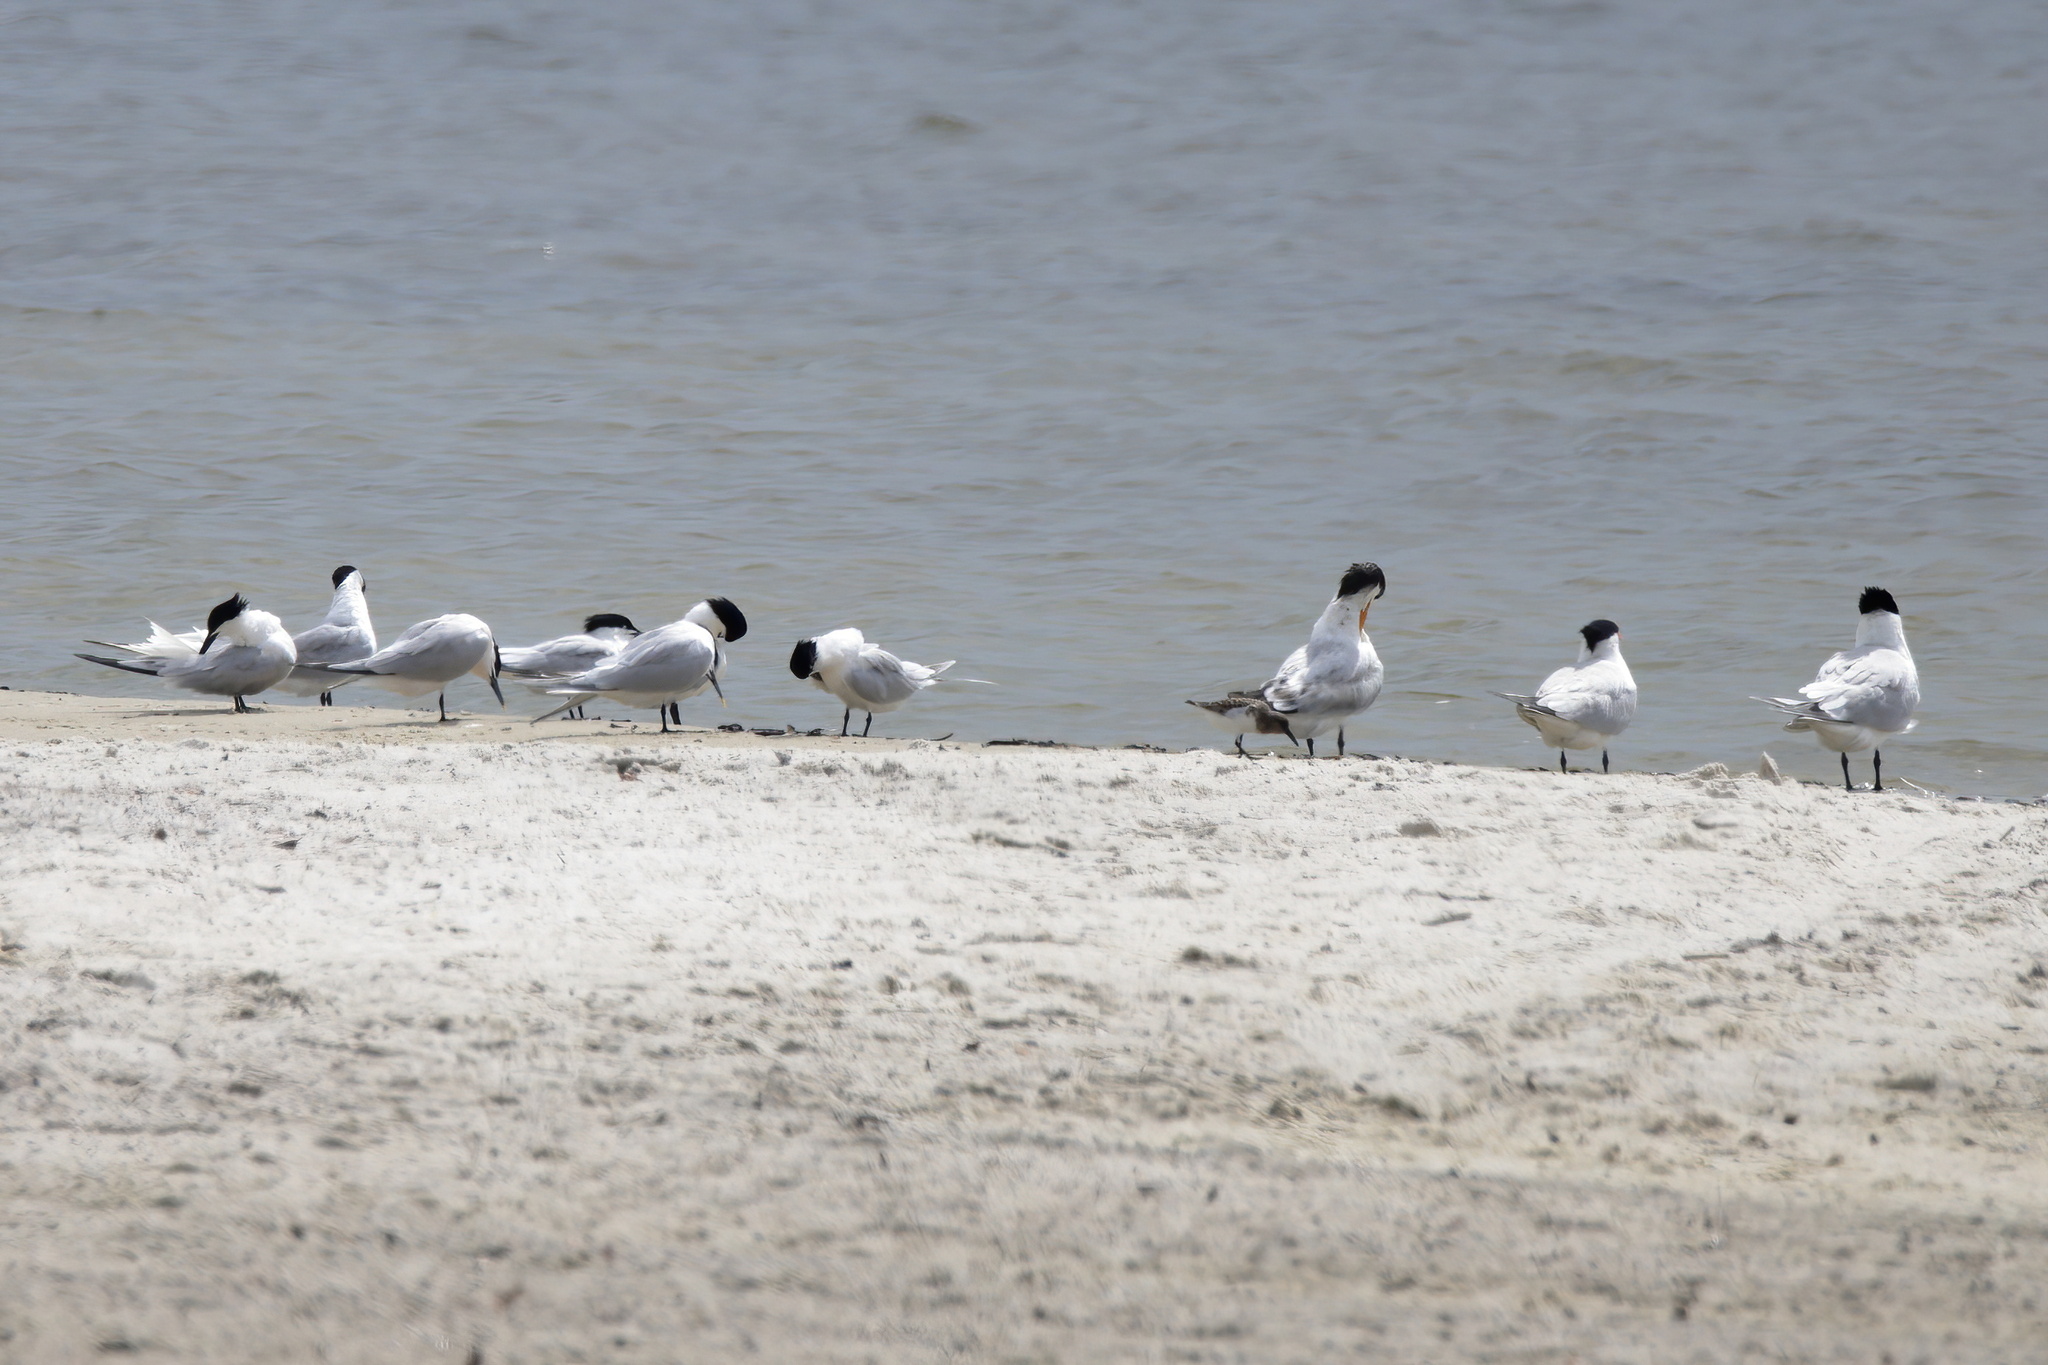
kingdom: Animalia
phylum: Chordata
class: Aves
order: Charadriiformes
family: Laridae
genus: Thalasseus
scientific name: Thalasseus sandvicensis
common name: Sandwich tern
